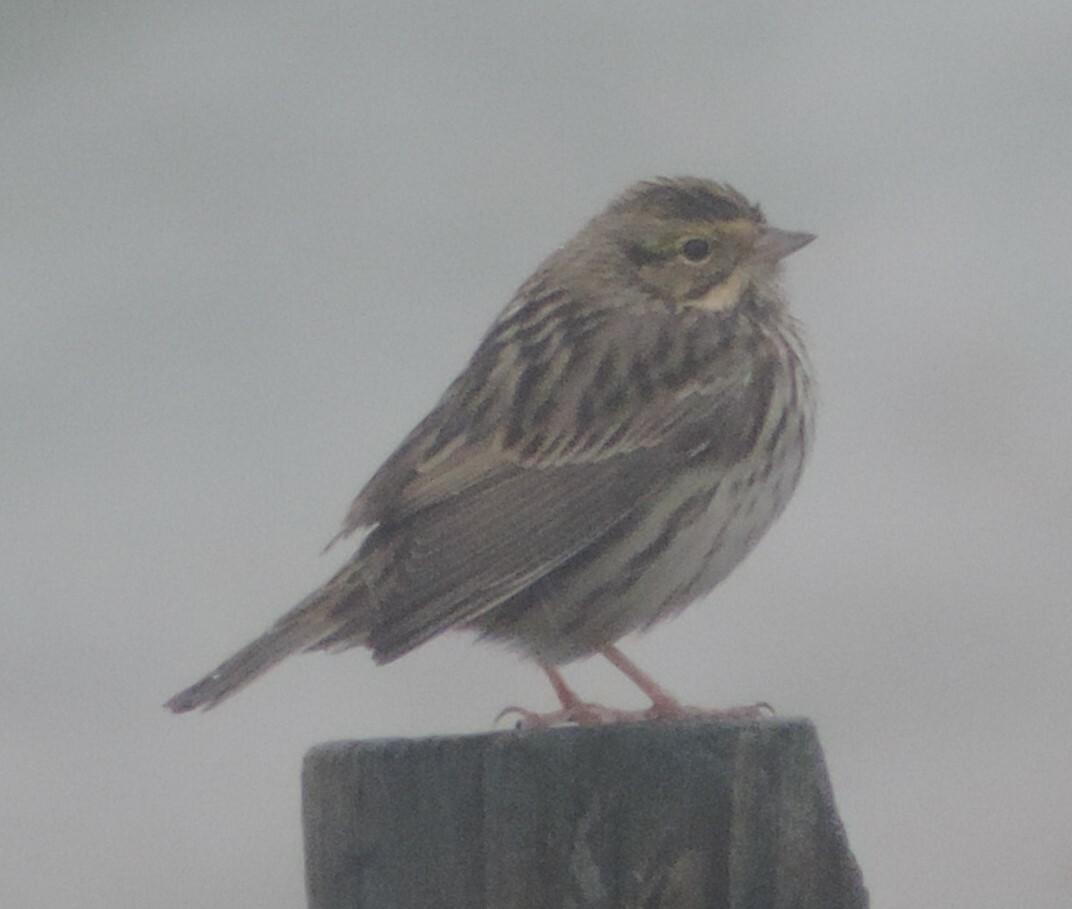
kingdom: Animalia
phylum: Chordata
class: Aves
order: Passeriformes
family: Passerellidae
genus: Passerculus
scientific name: Passerculus sandwichensis
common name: Savannah sparrow
